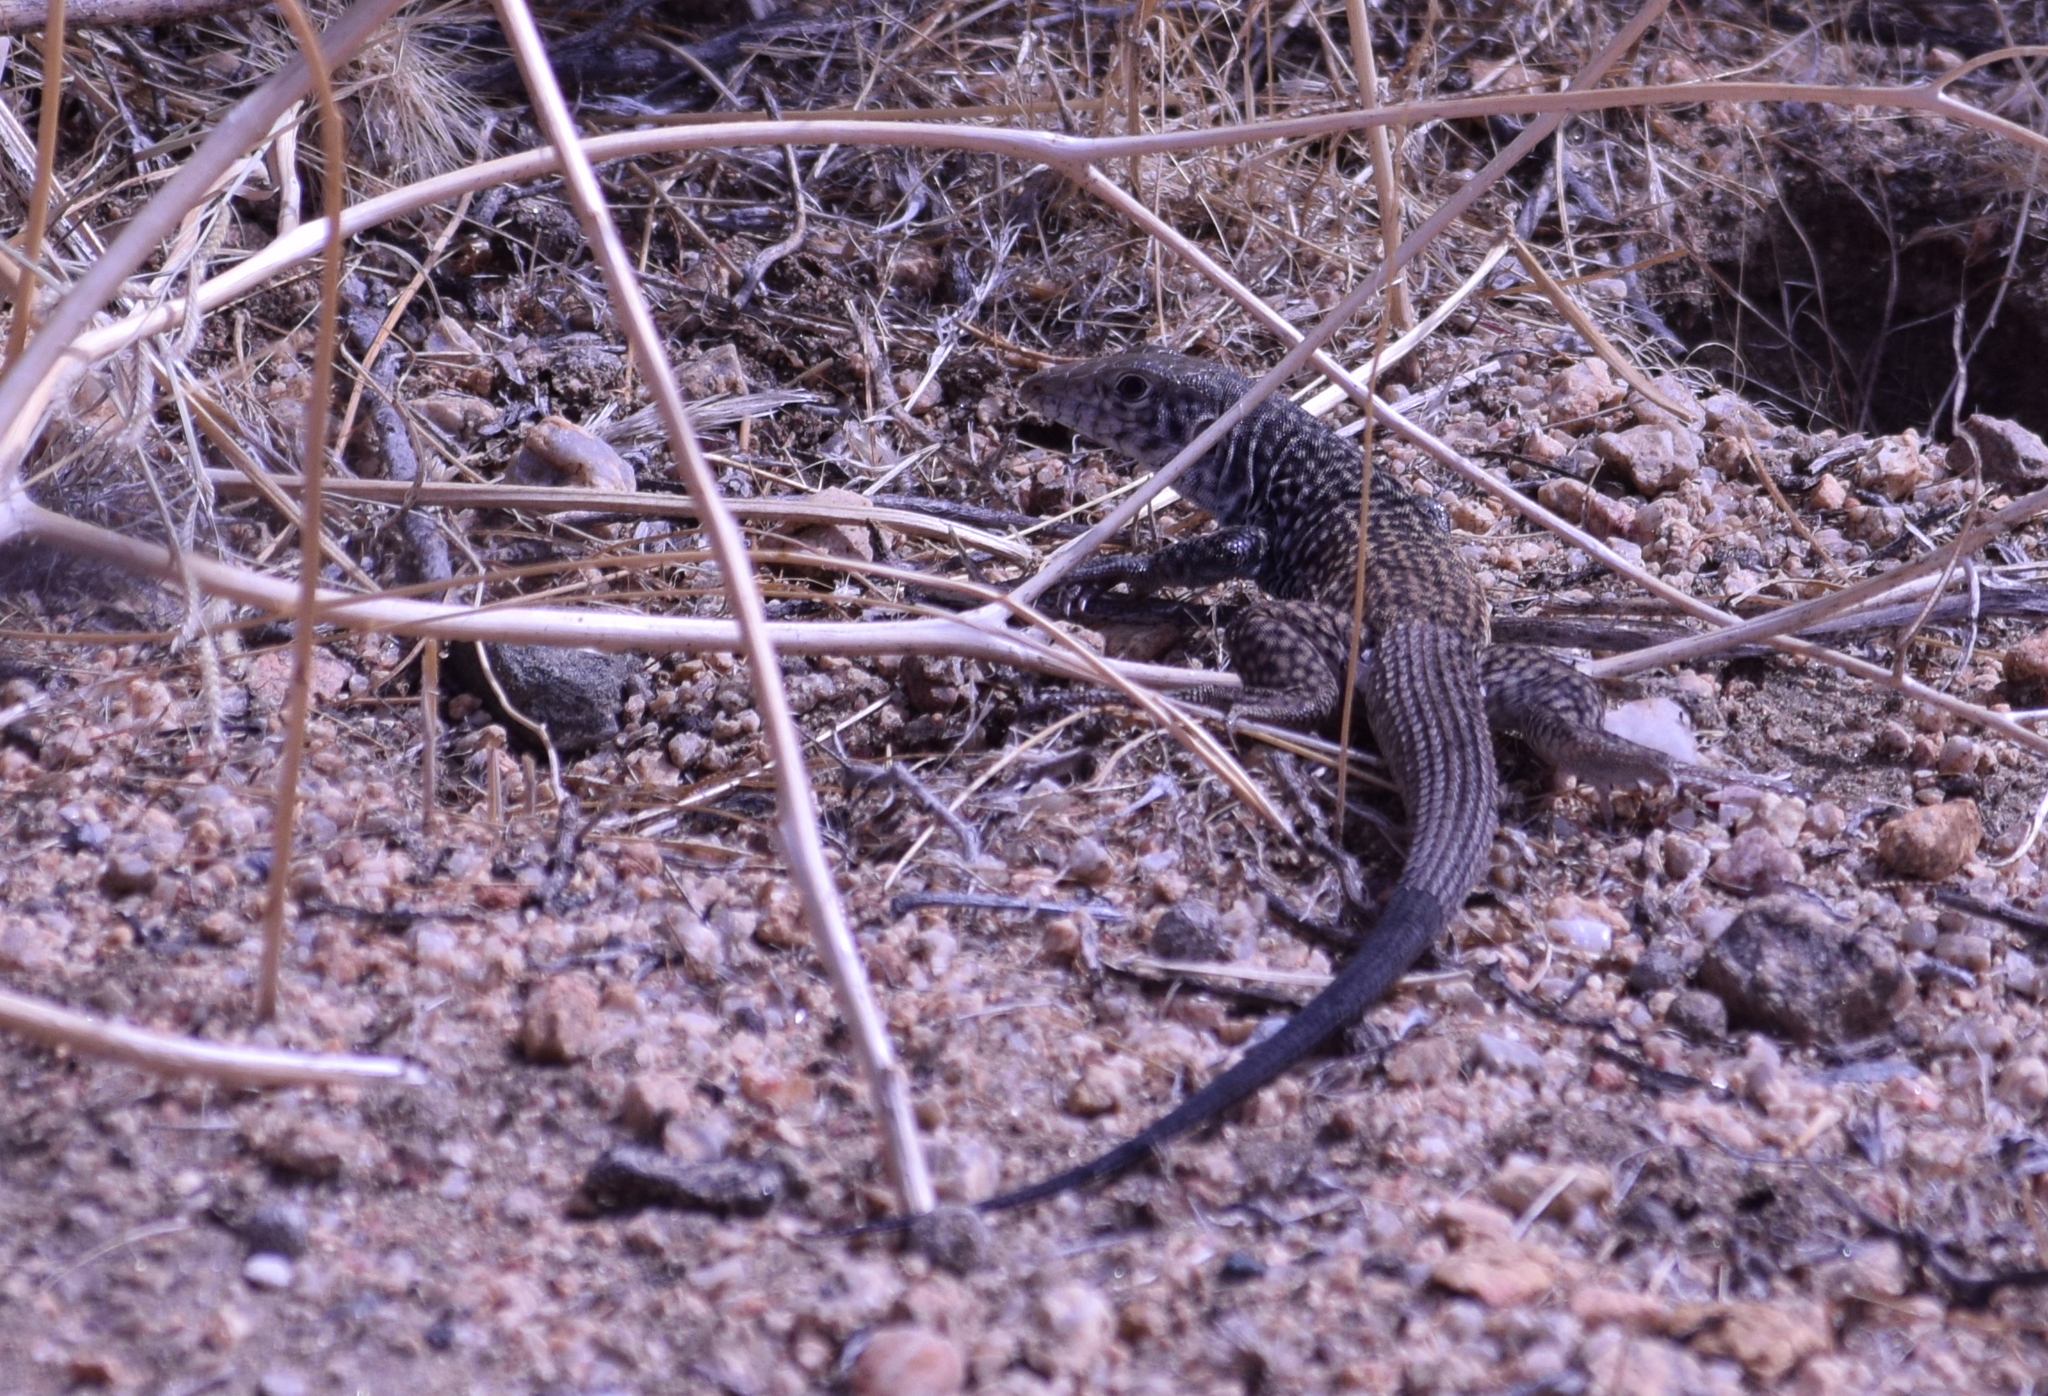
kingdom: Animalia
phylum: Chordata
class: Squamata
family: Teiidae
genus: Aspidoscelis
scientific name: Aspidoscelis tigris
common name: Tiger whiptail
